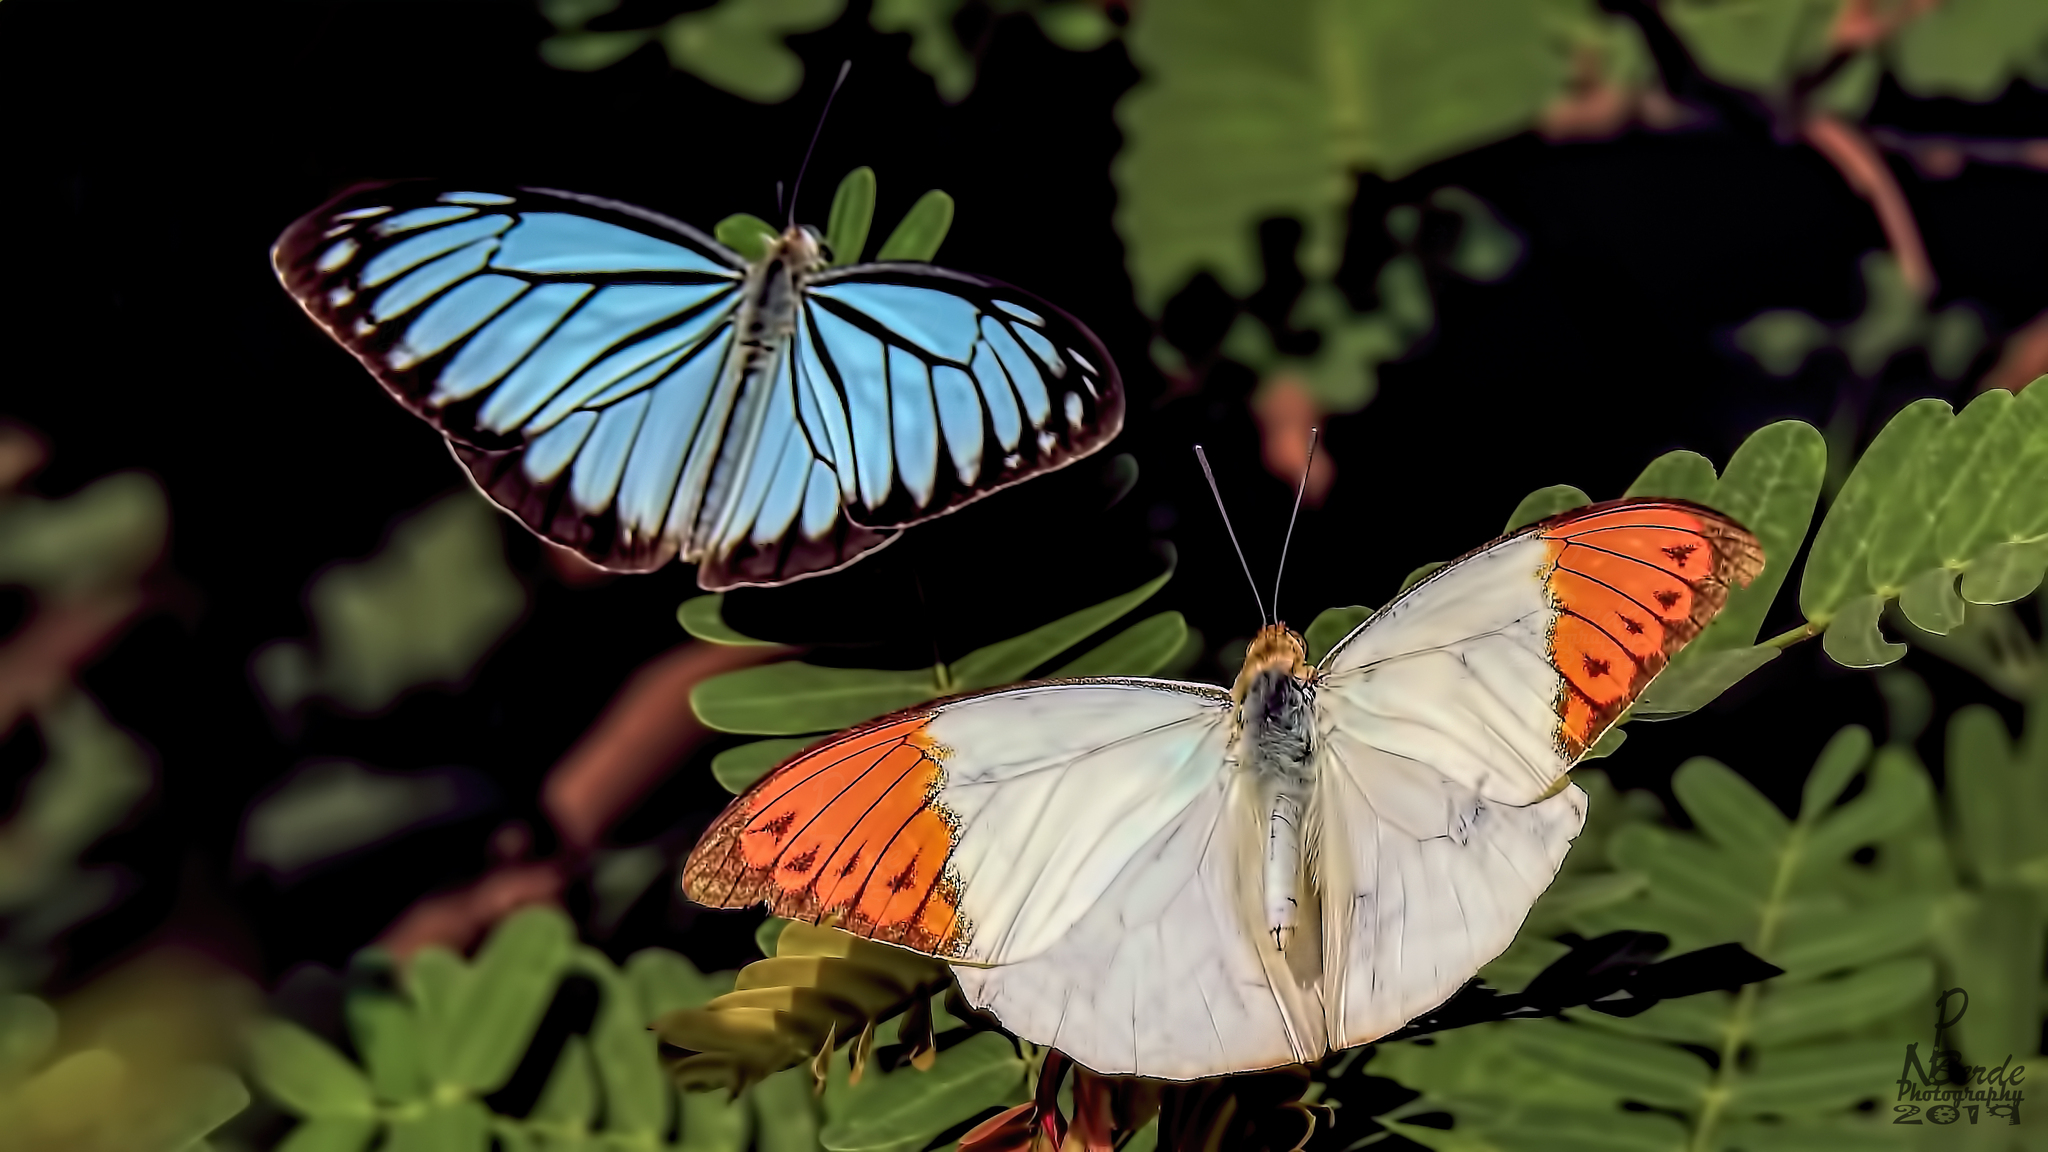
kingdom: Animalia
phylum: Arthropoda
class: Insecta
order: Lepidoptera
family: Pieridae
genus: Pareronia
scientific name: Pareronia hippia
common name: Indian wanderer
